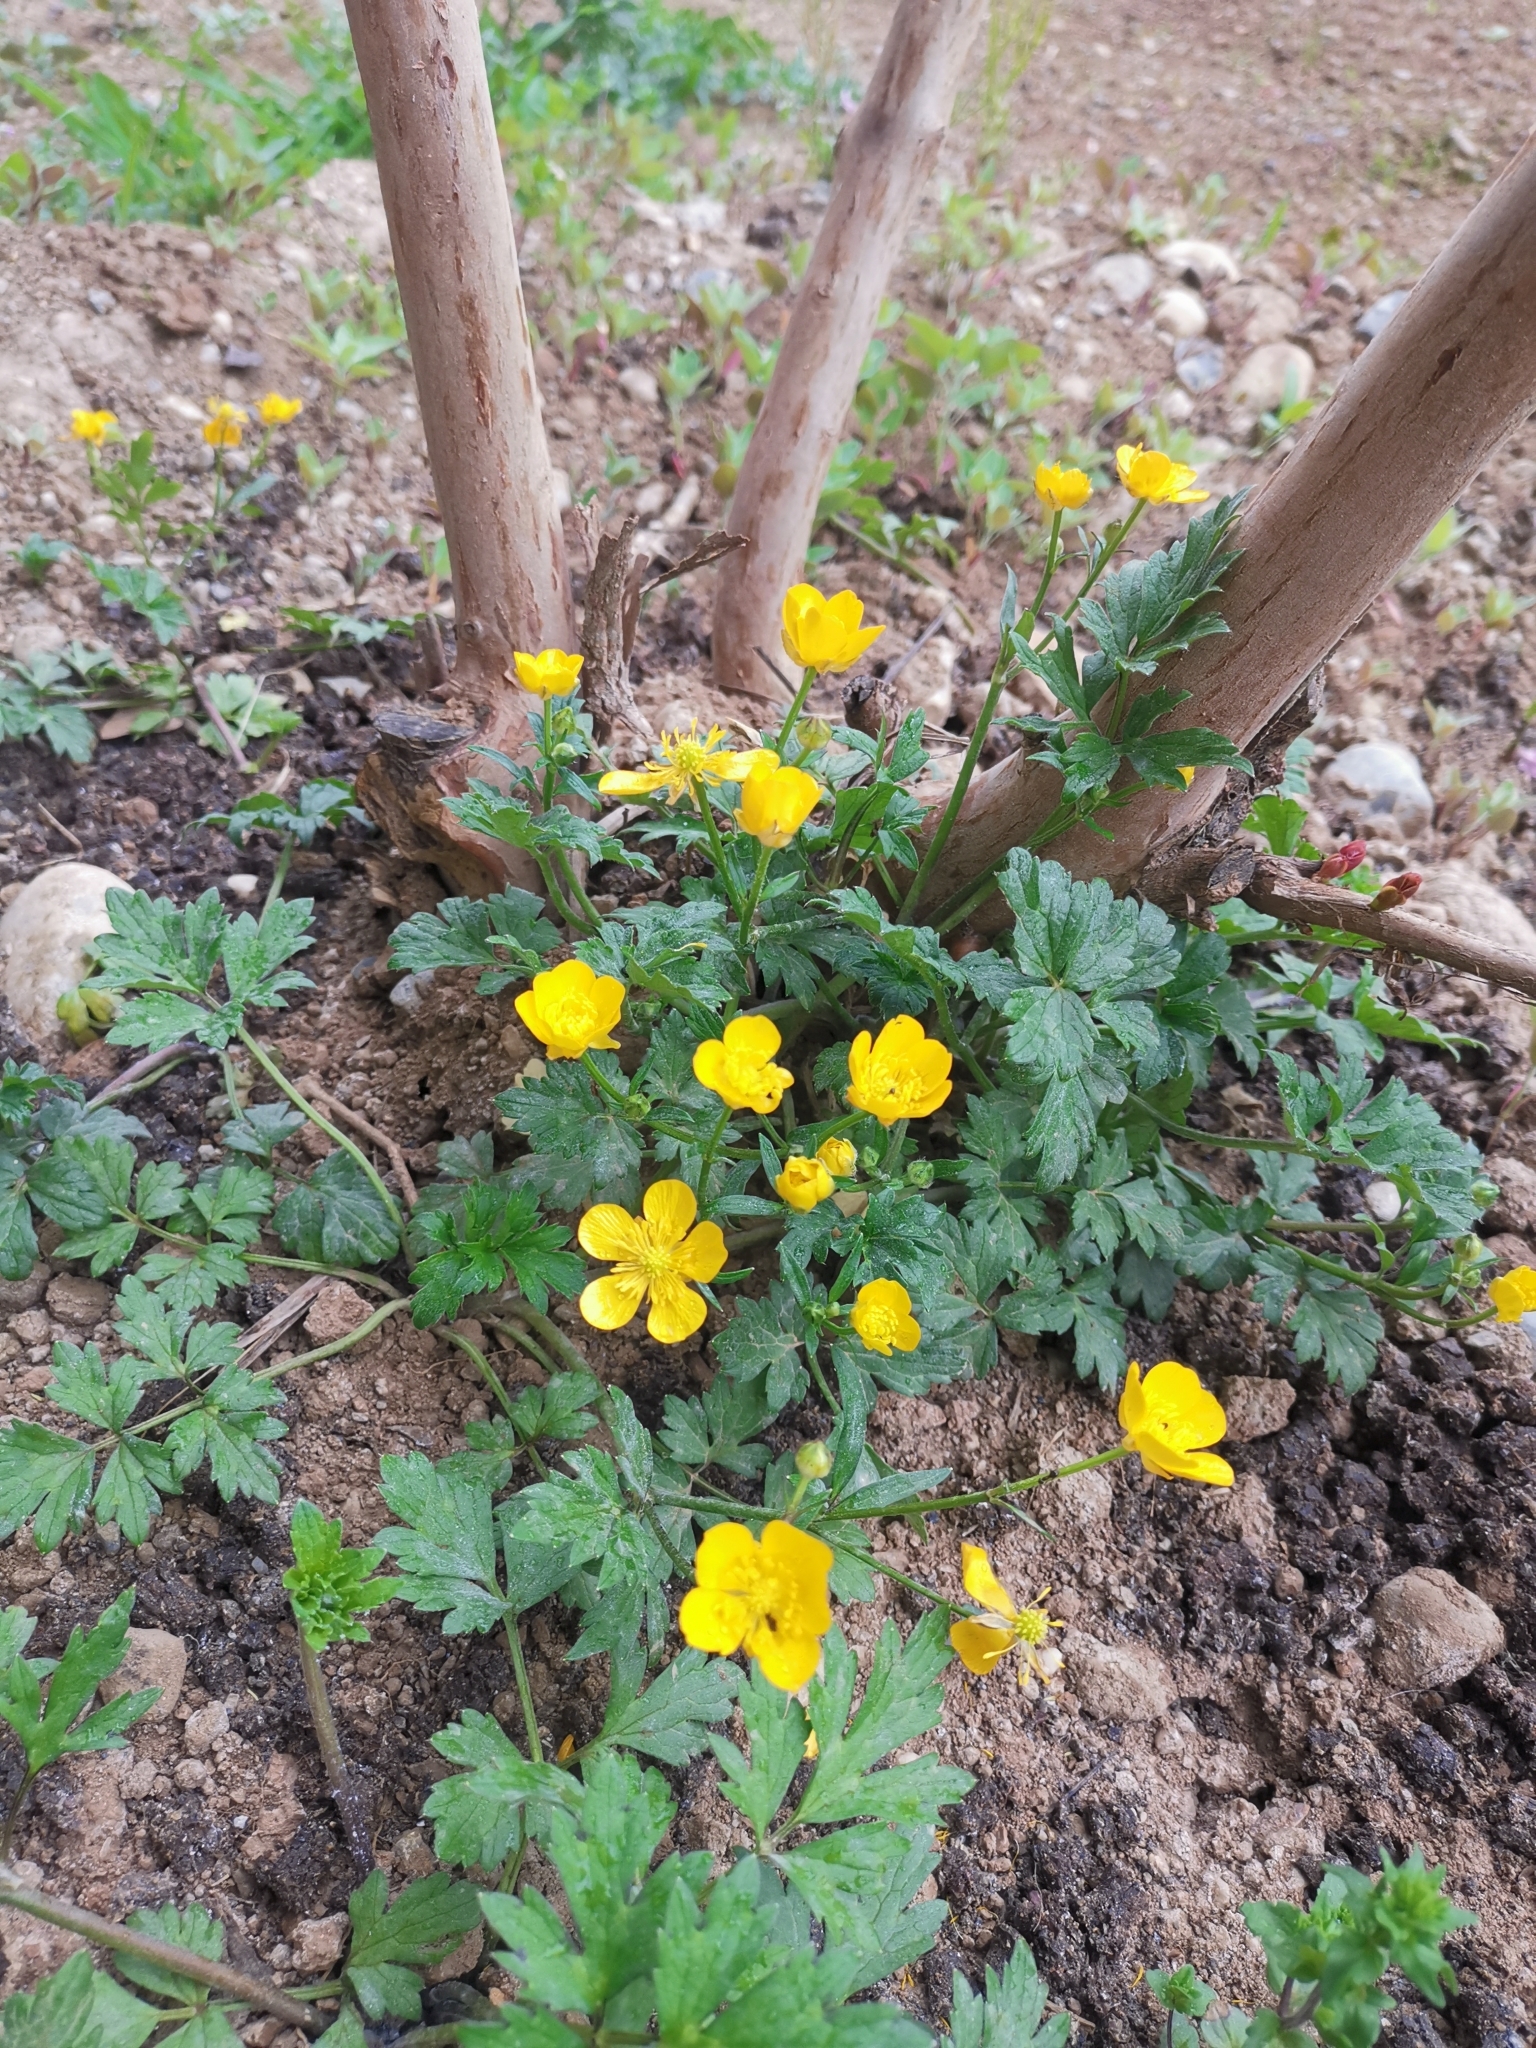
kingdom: Plantae
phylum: Tracheophyta
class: Magnoliopsida
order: Ranunculales
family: Ranunculaceae
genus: Ranunculus
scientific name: Ranunculus repens
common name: Creeping buttercup
